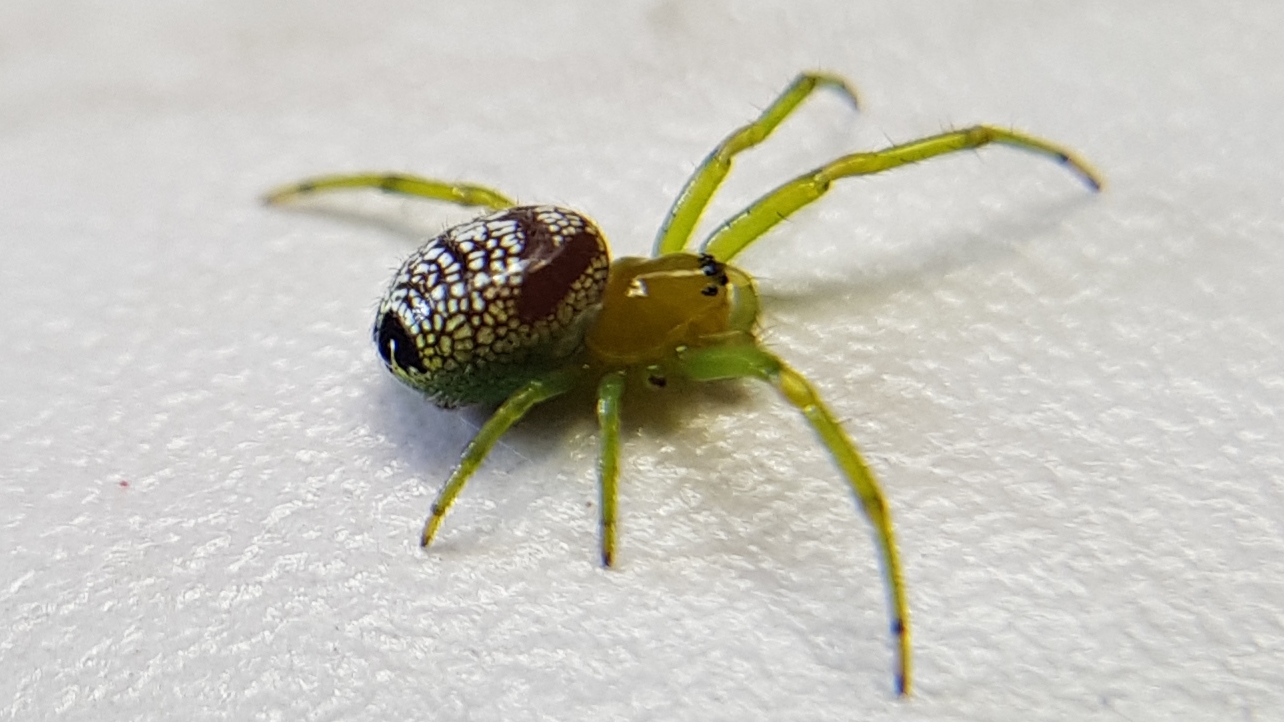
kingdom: Animalia
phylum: Arthropoda
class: Arachnida
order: Araneae
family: Araneidae
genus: Bijoaraneus
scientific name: Bijoaraneus praesignis
